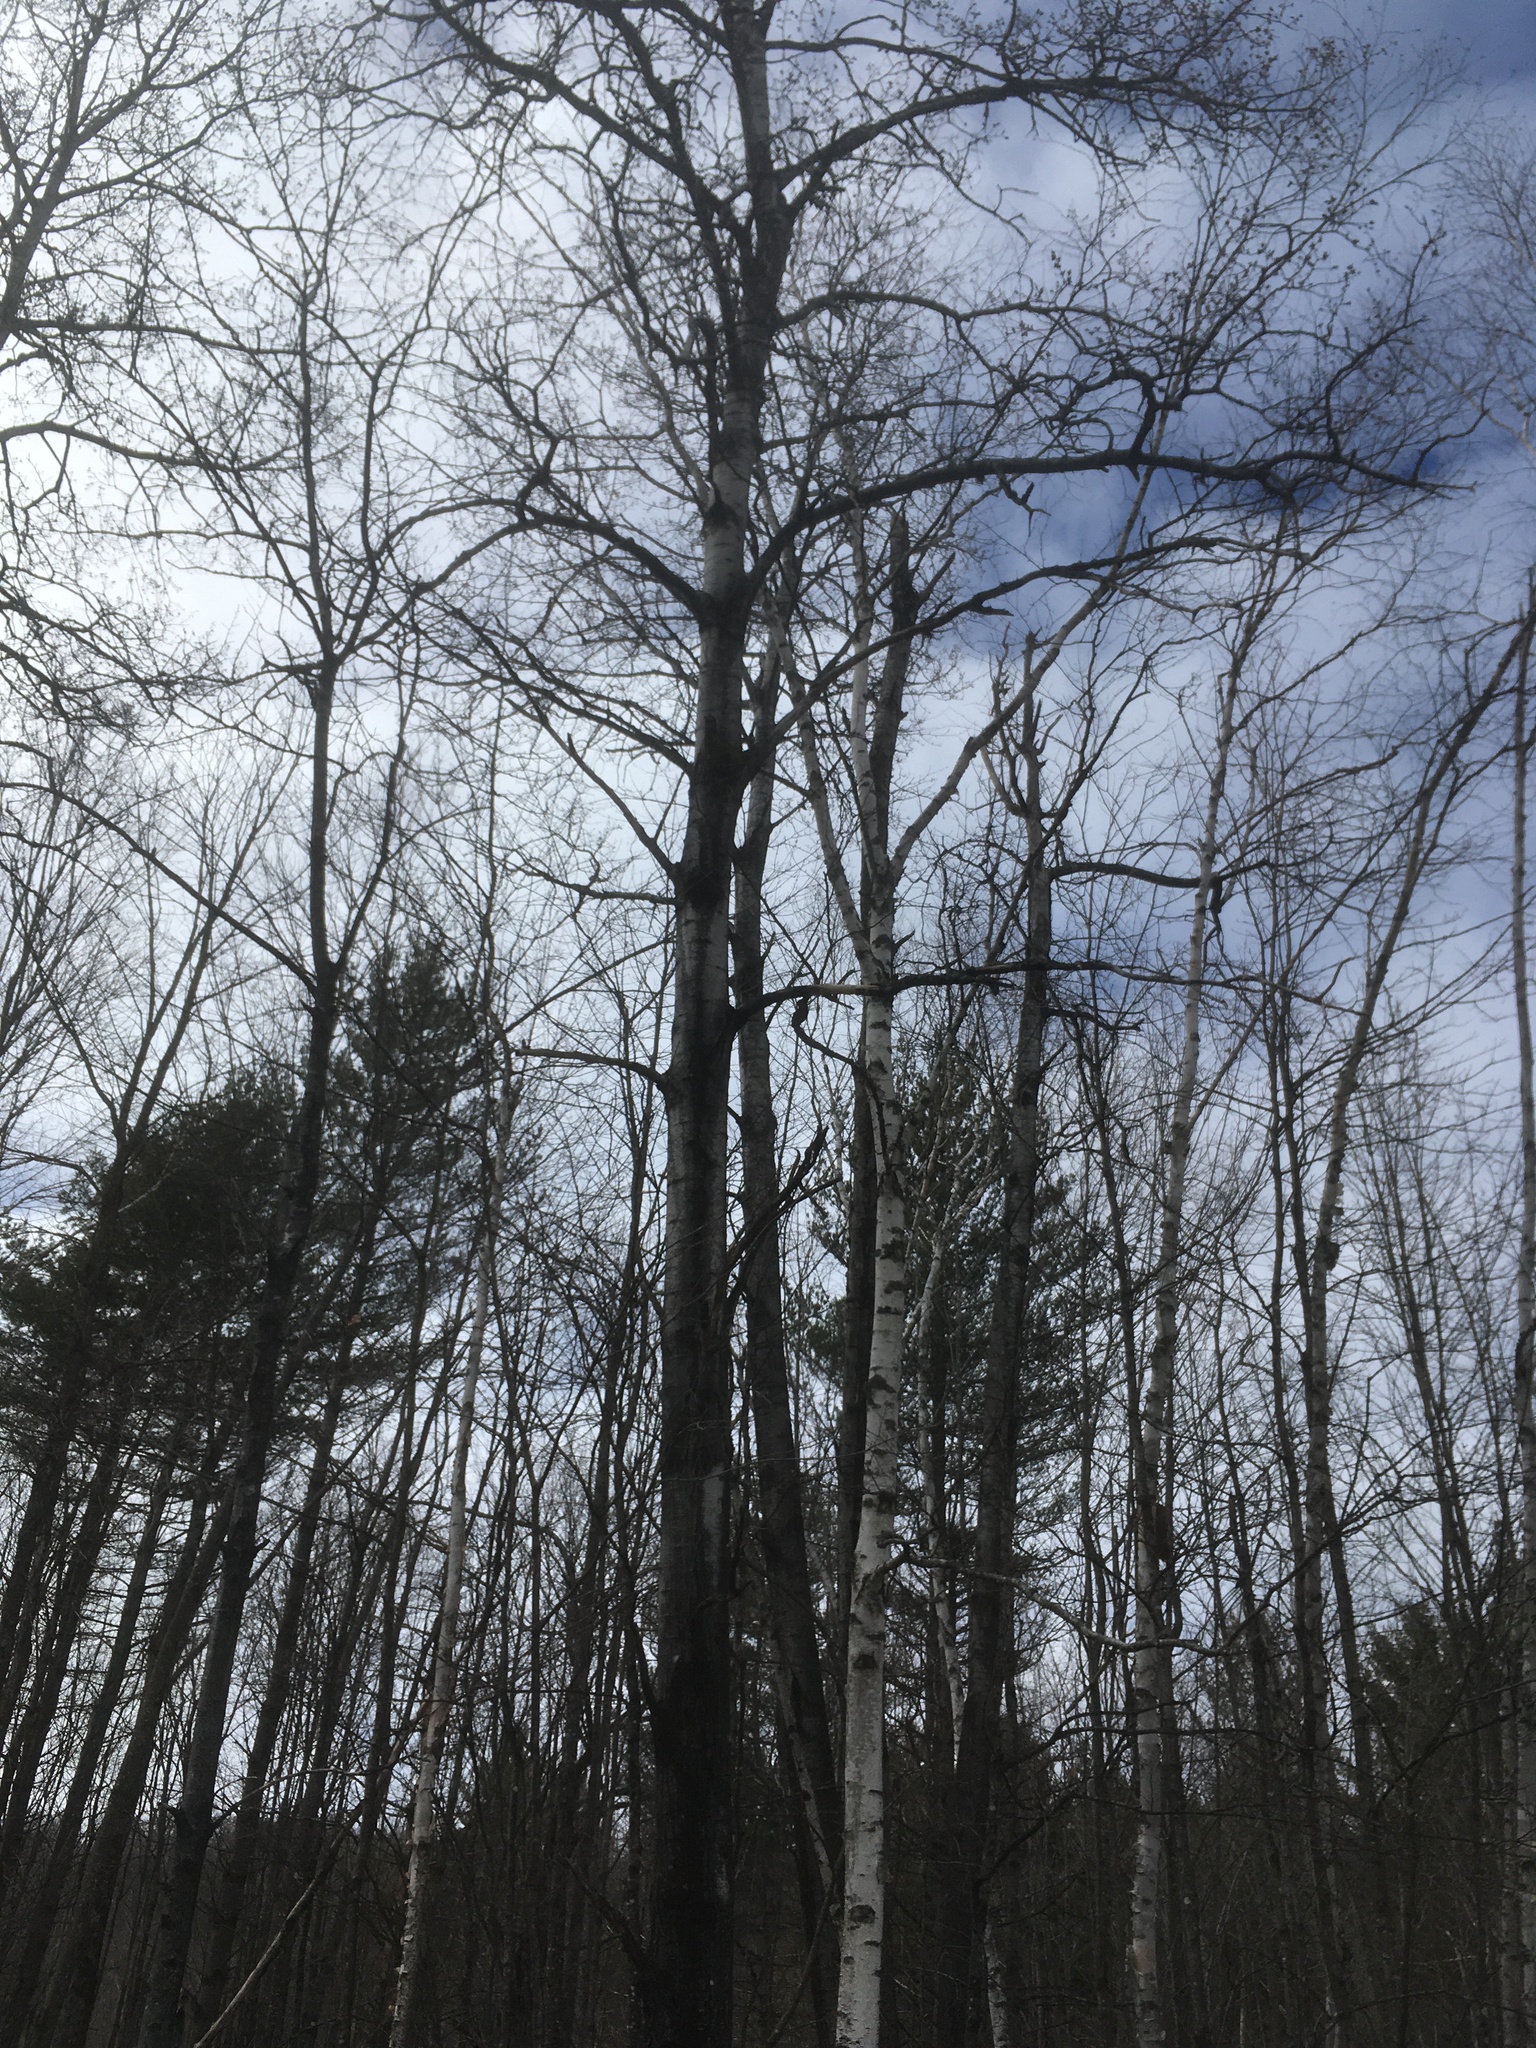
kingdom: Plantae
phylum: Tracheophyta
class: Magnoliopsida
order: Malpighiales
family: Salicaceae
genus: Populus
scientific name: Populus tremuloides
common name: Quaking aspen
